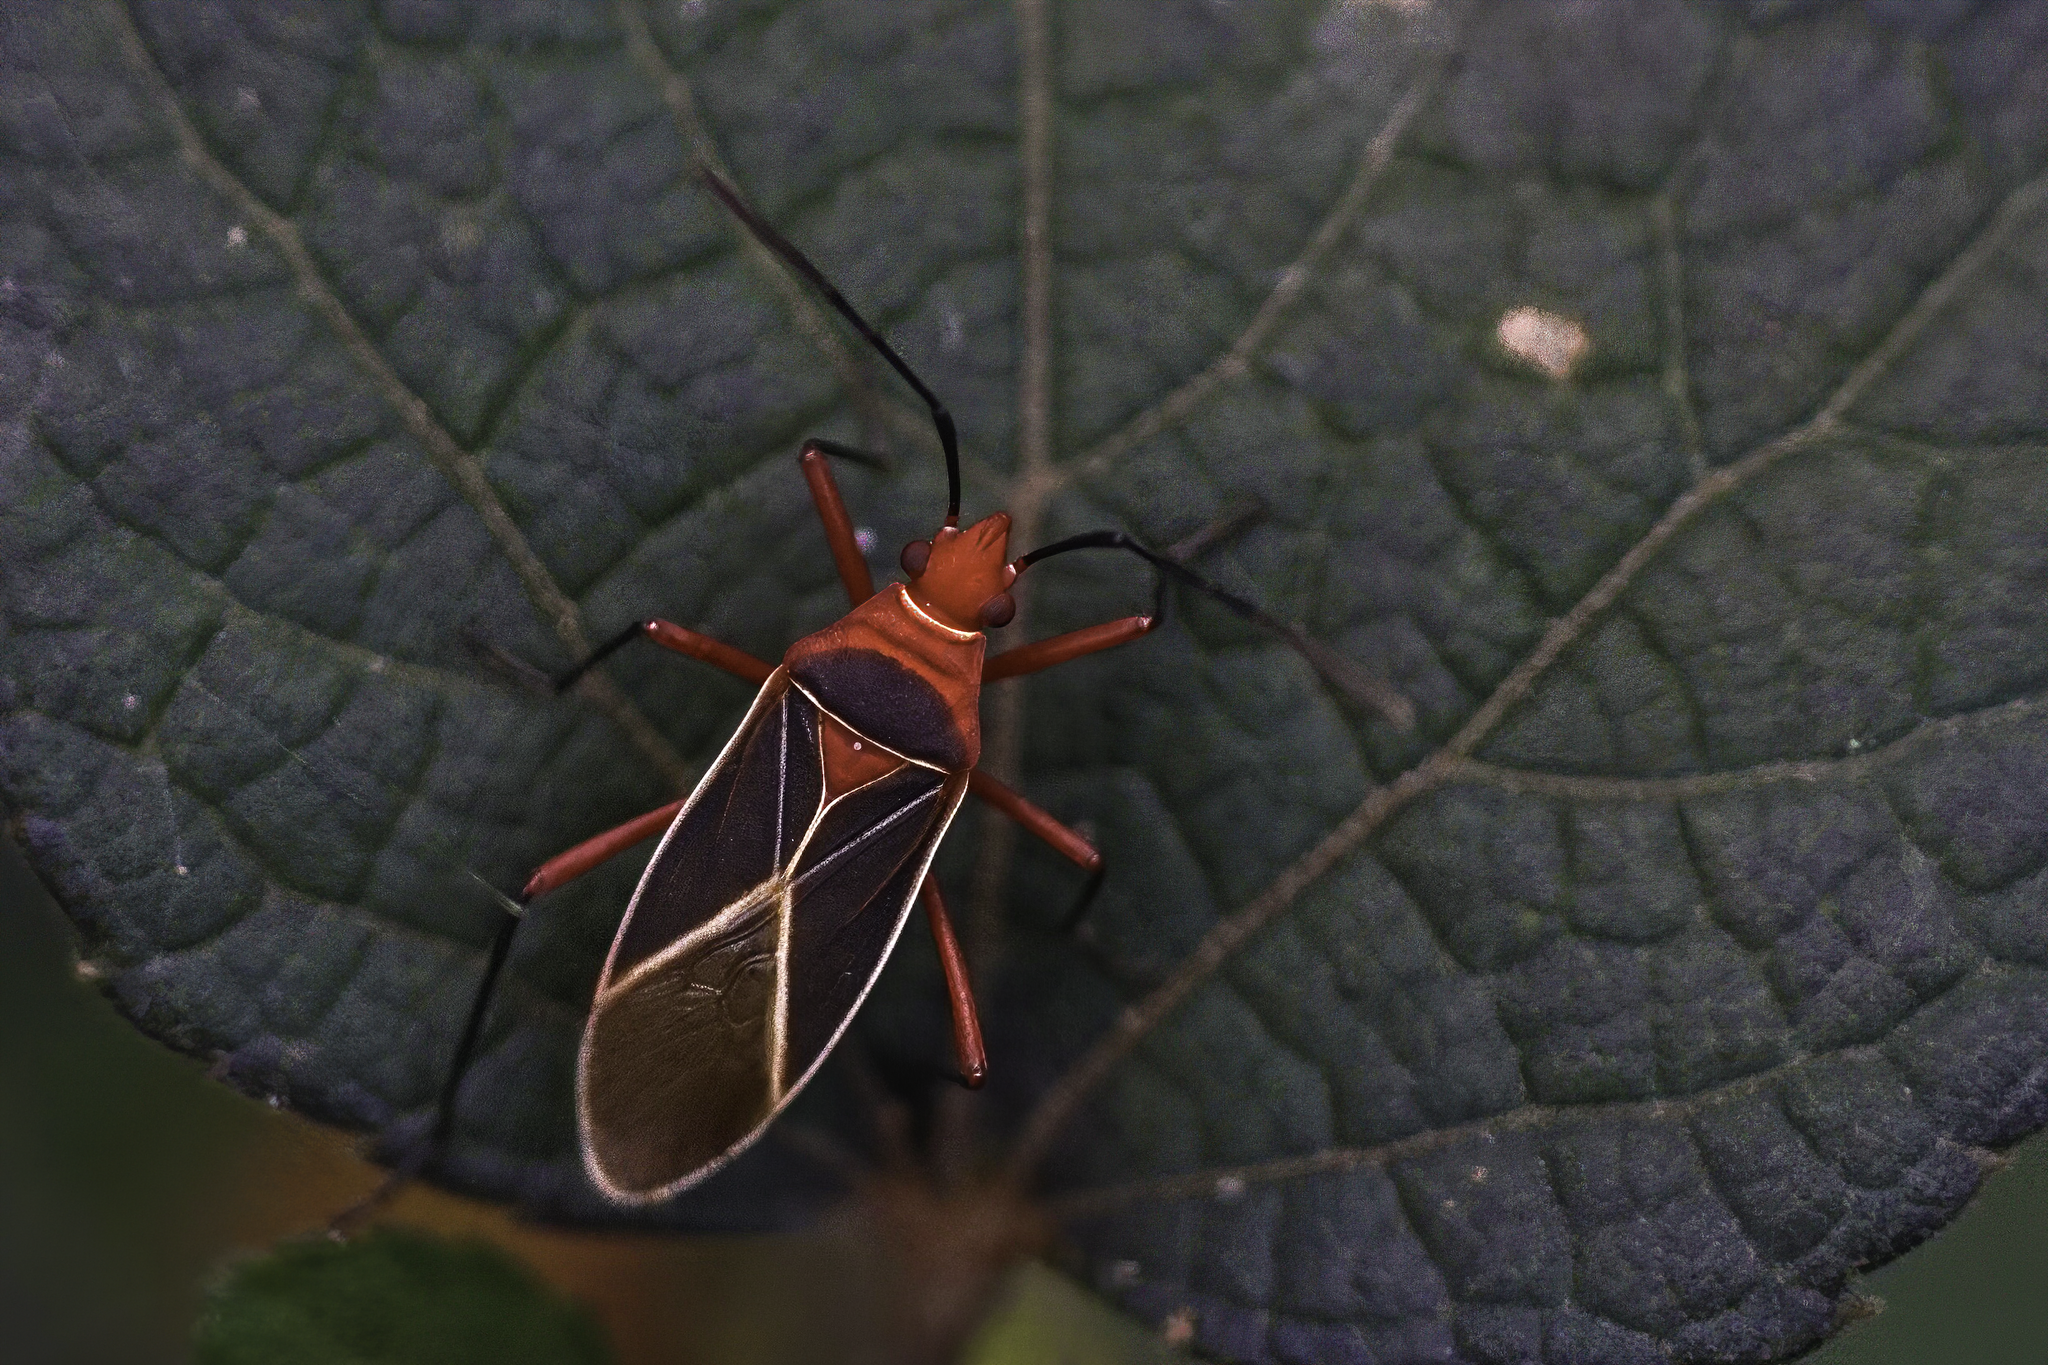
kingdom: Animalia
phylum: Arthropoda
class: Insecta
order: Hemiptera
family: Pyrrhocoridae
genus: Dysdercus
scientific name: Dysdercus suturellus
